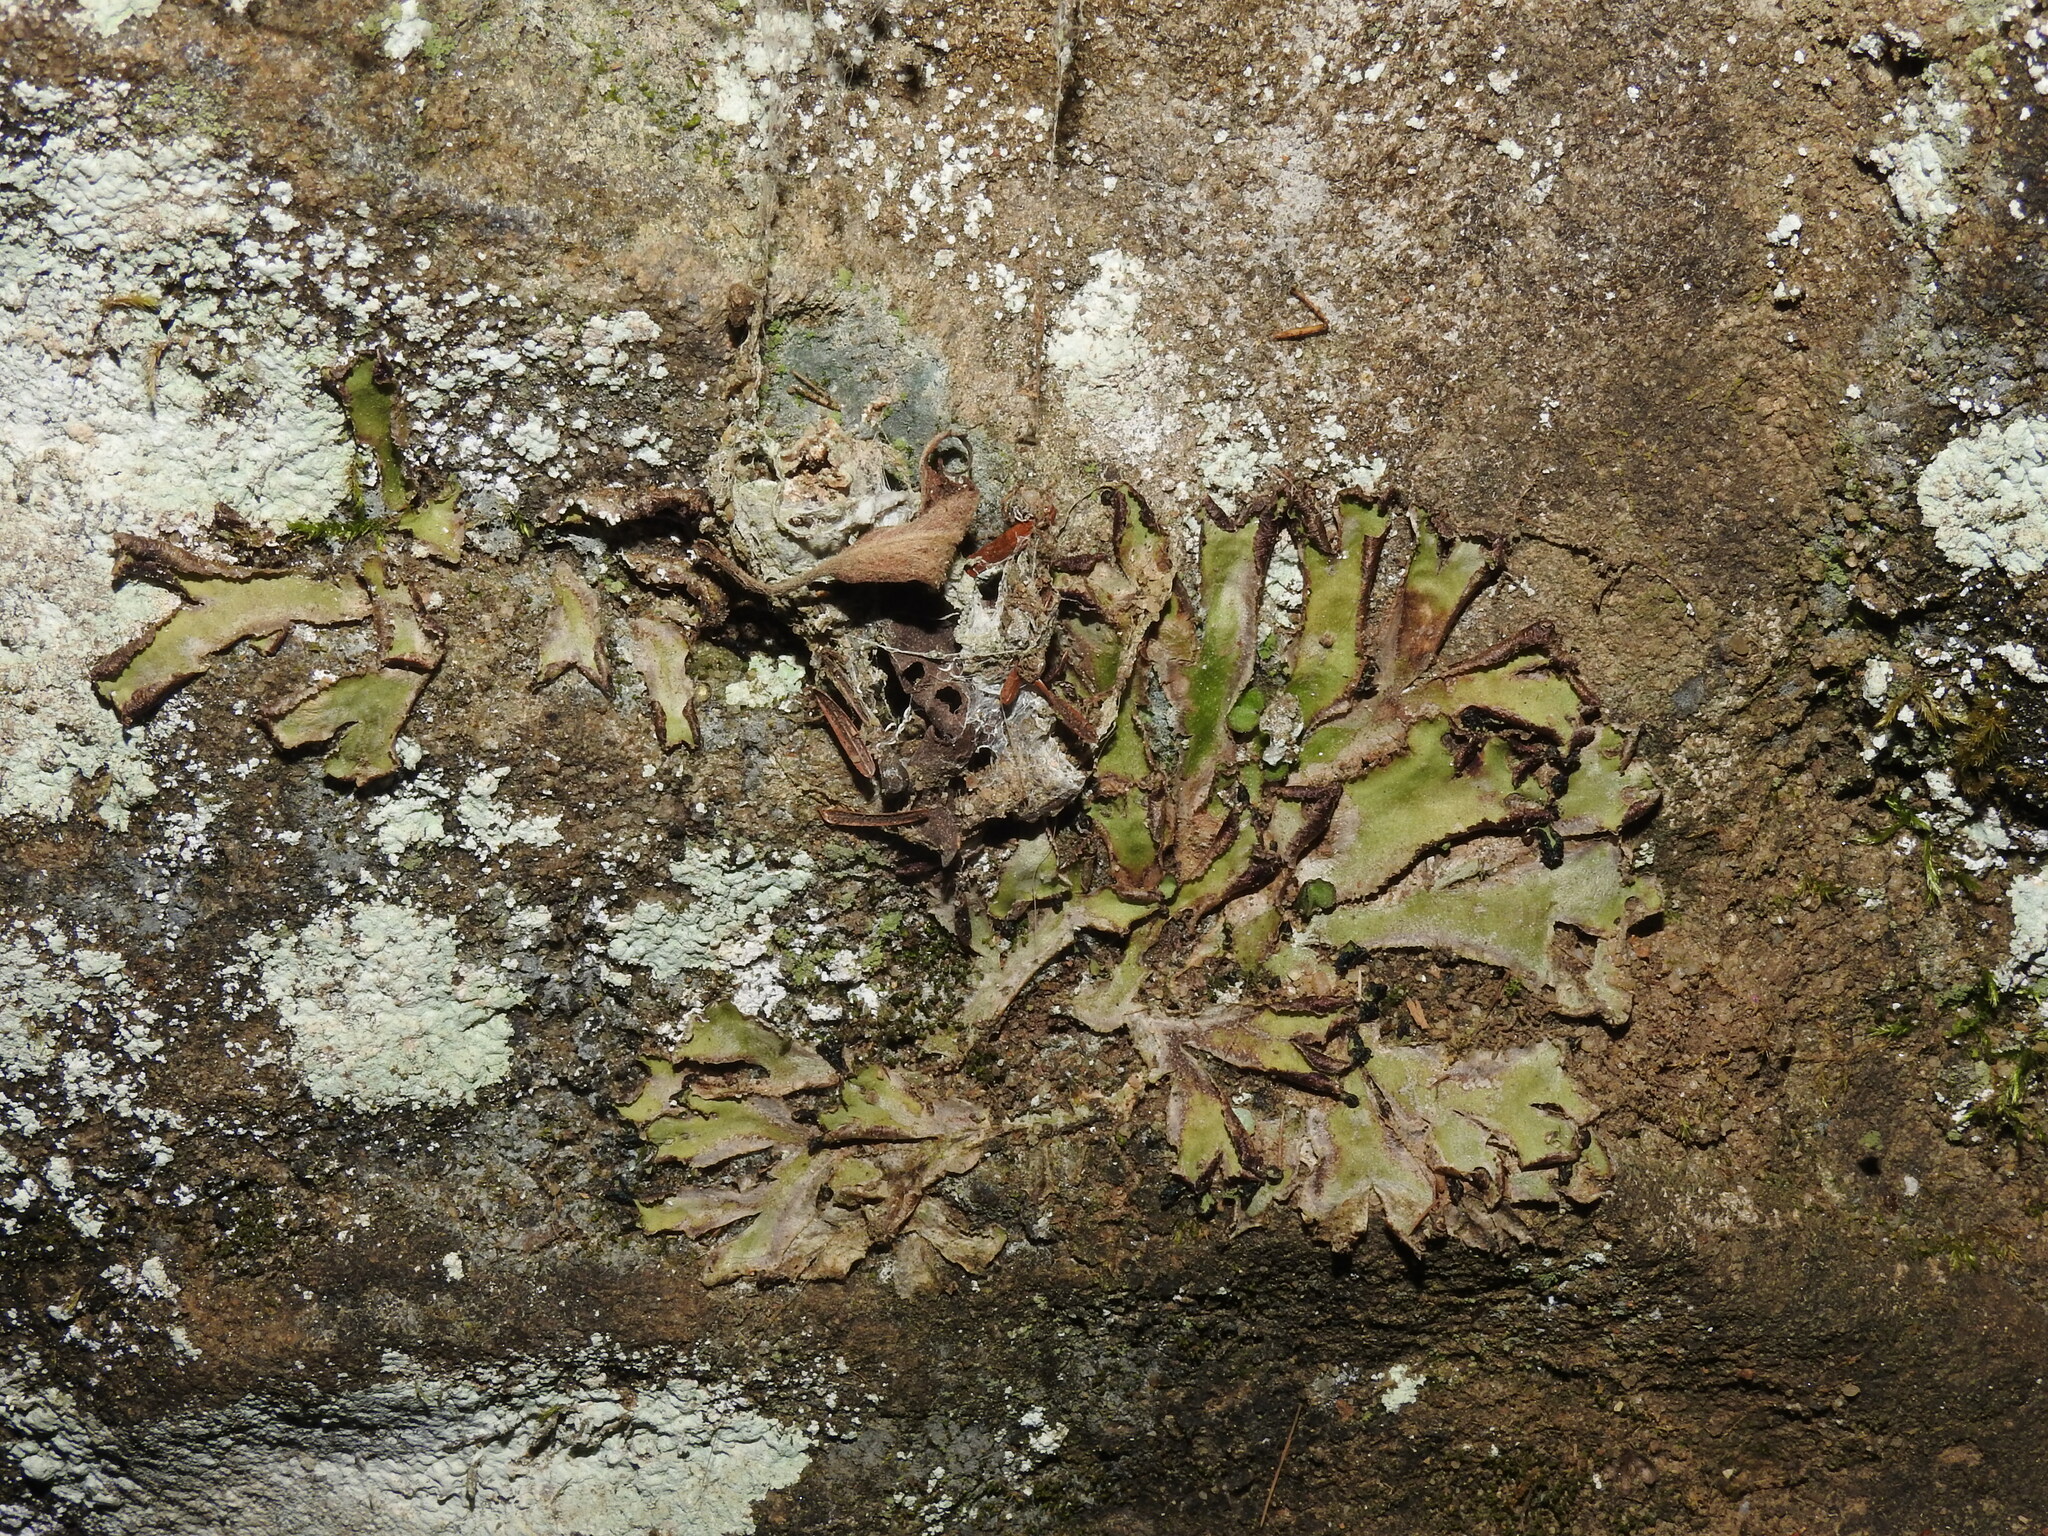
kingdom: Plantae
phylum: Marchantiophyta
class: Marchantiopsida
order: Marchantiales
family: Dumortieraceae
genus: Dumortiera
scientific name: Dumortiera hirsuta
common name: Dumortier's liverwort
